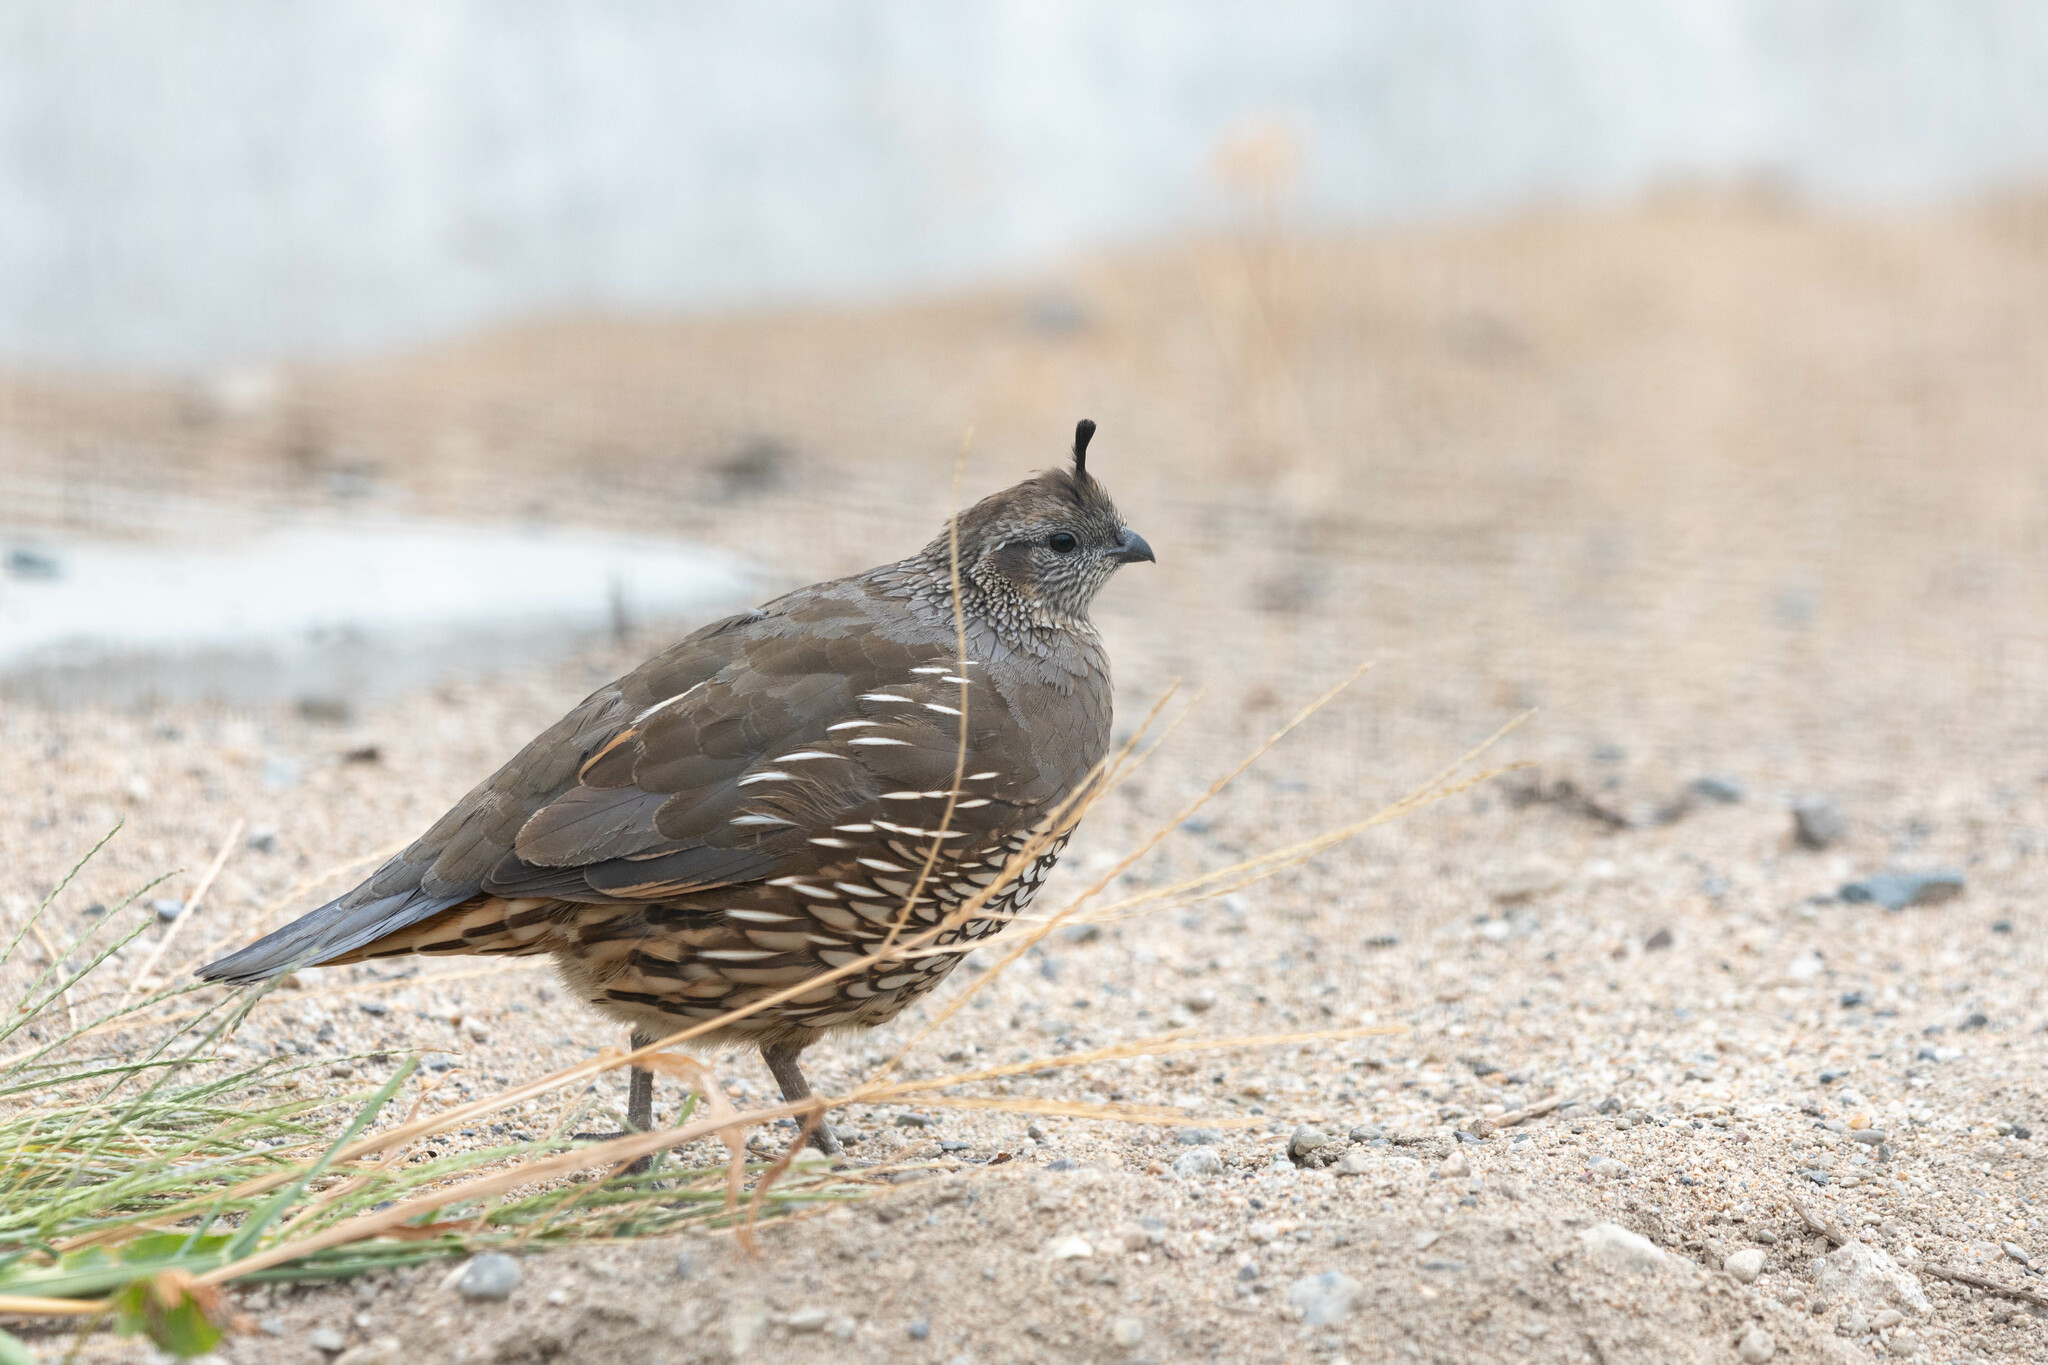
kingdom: Animalia
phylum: Chordata
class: Aves
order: Galliformes
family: Odontophoridae
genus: Callipepla
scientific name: Callipepla californica
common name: California quail
